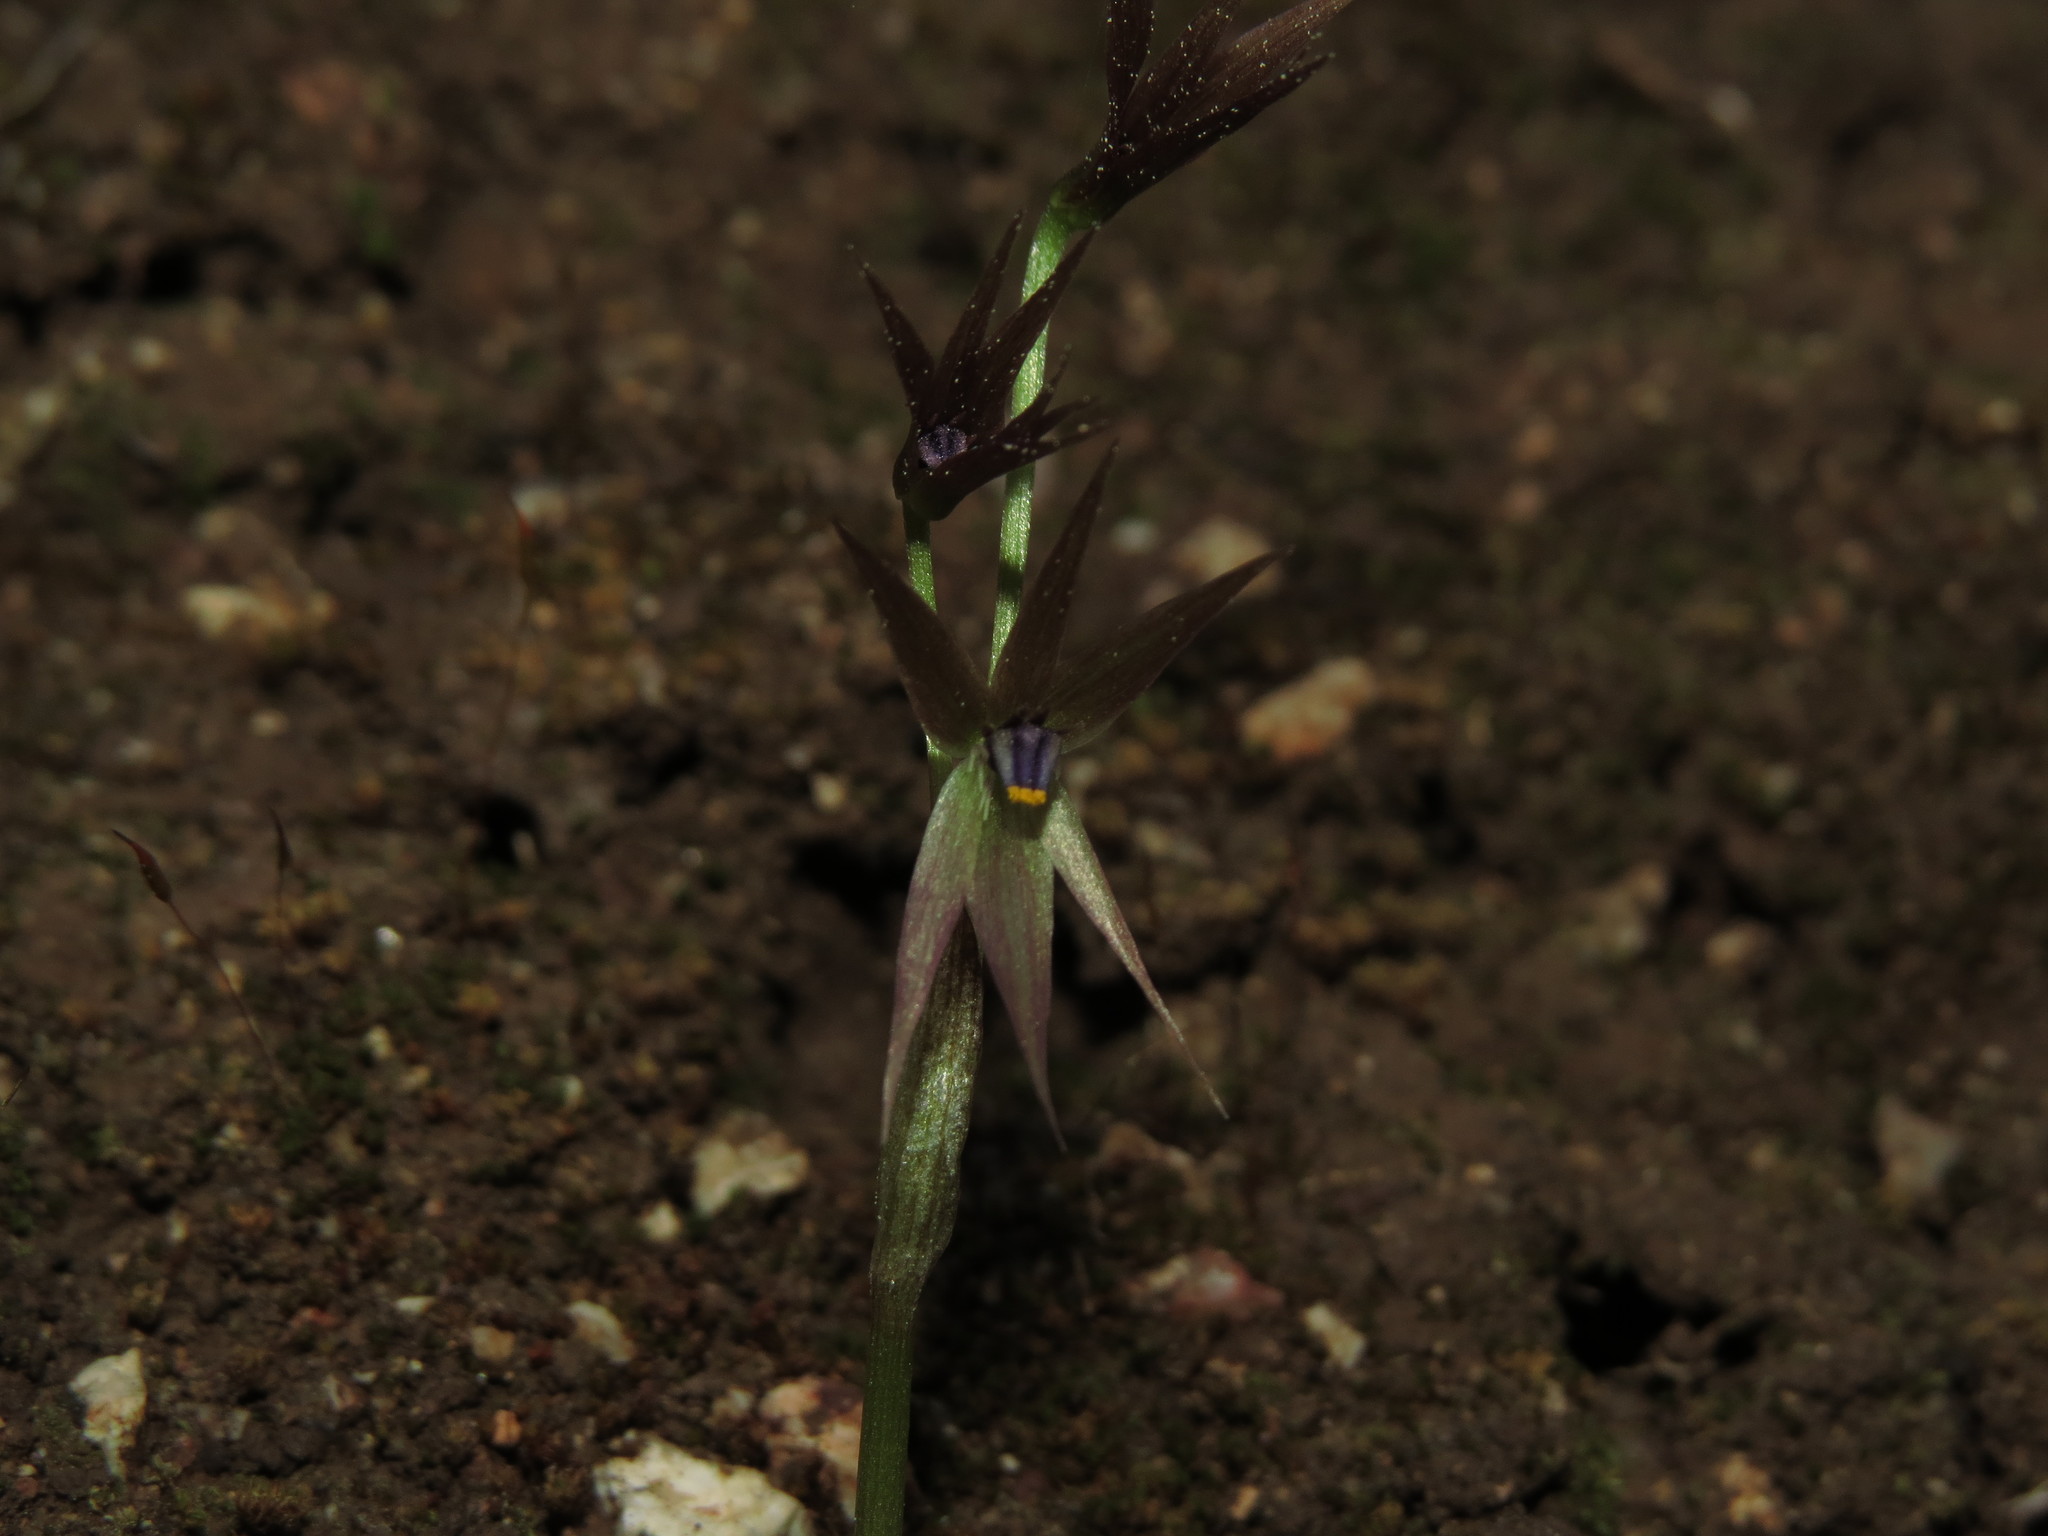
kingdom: Plantae
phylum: Tracheophyta
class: Liliopsida
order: Asparagales
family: Amaryllidaceae
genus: Miersia
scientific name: Miersia chilensis
